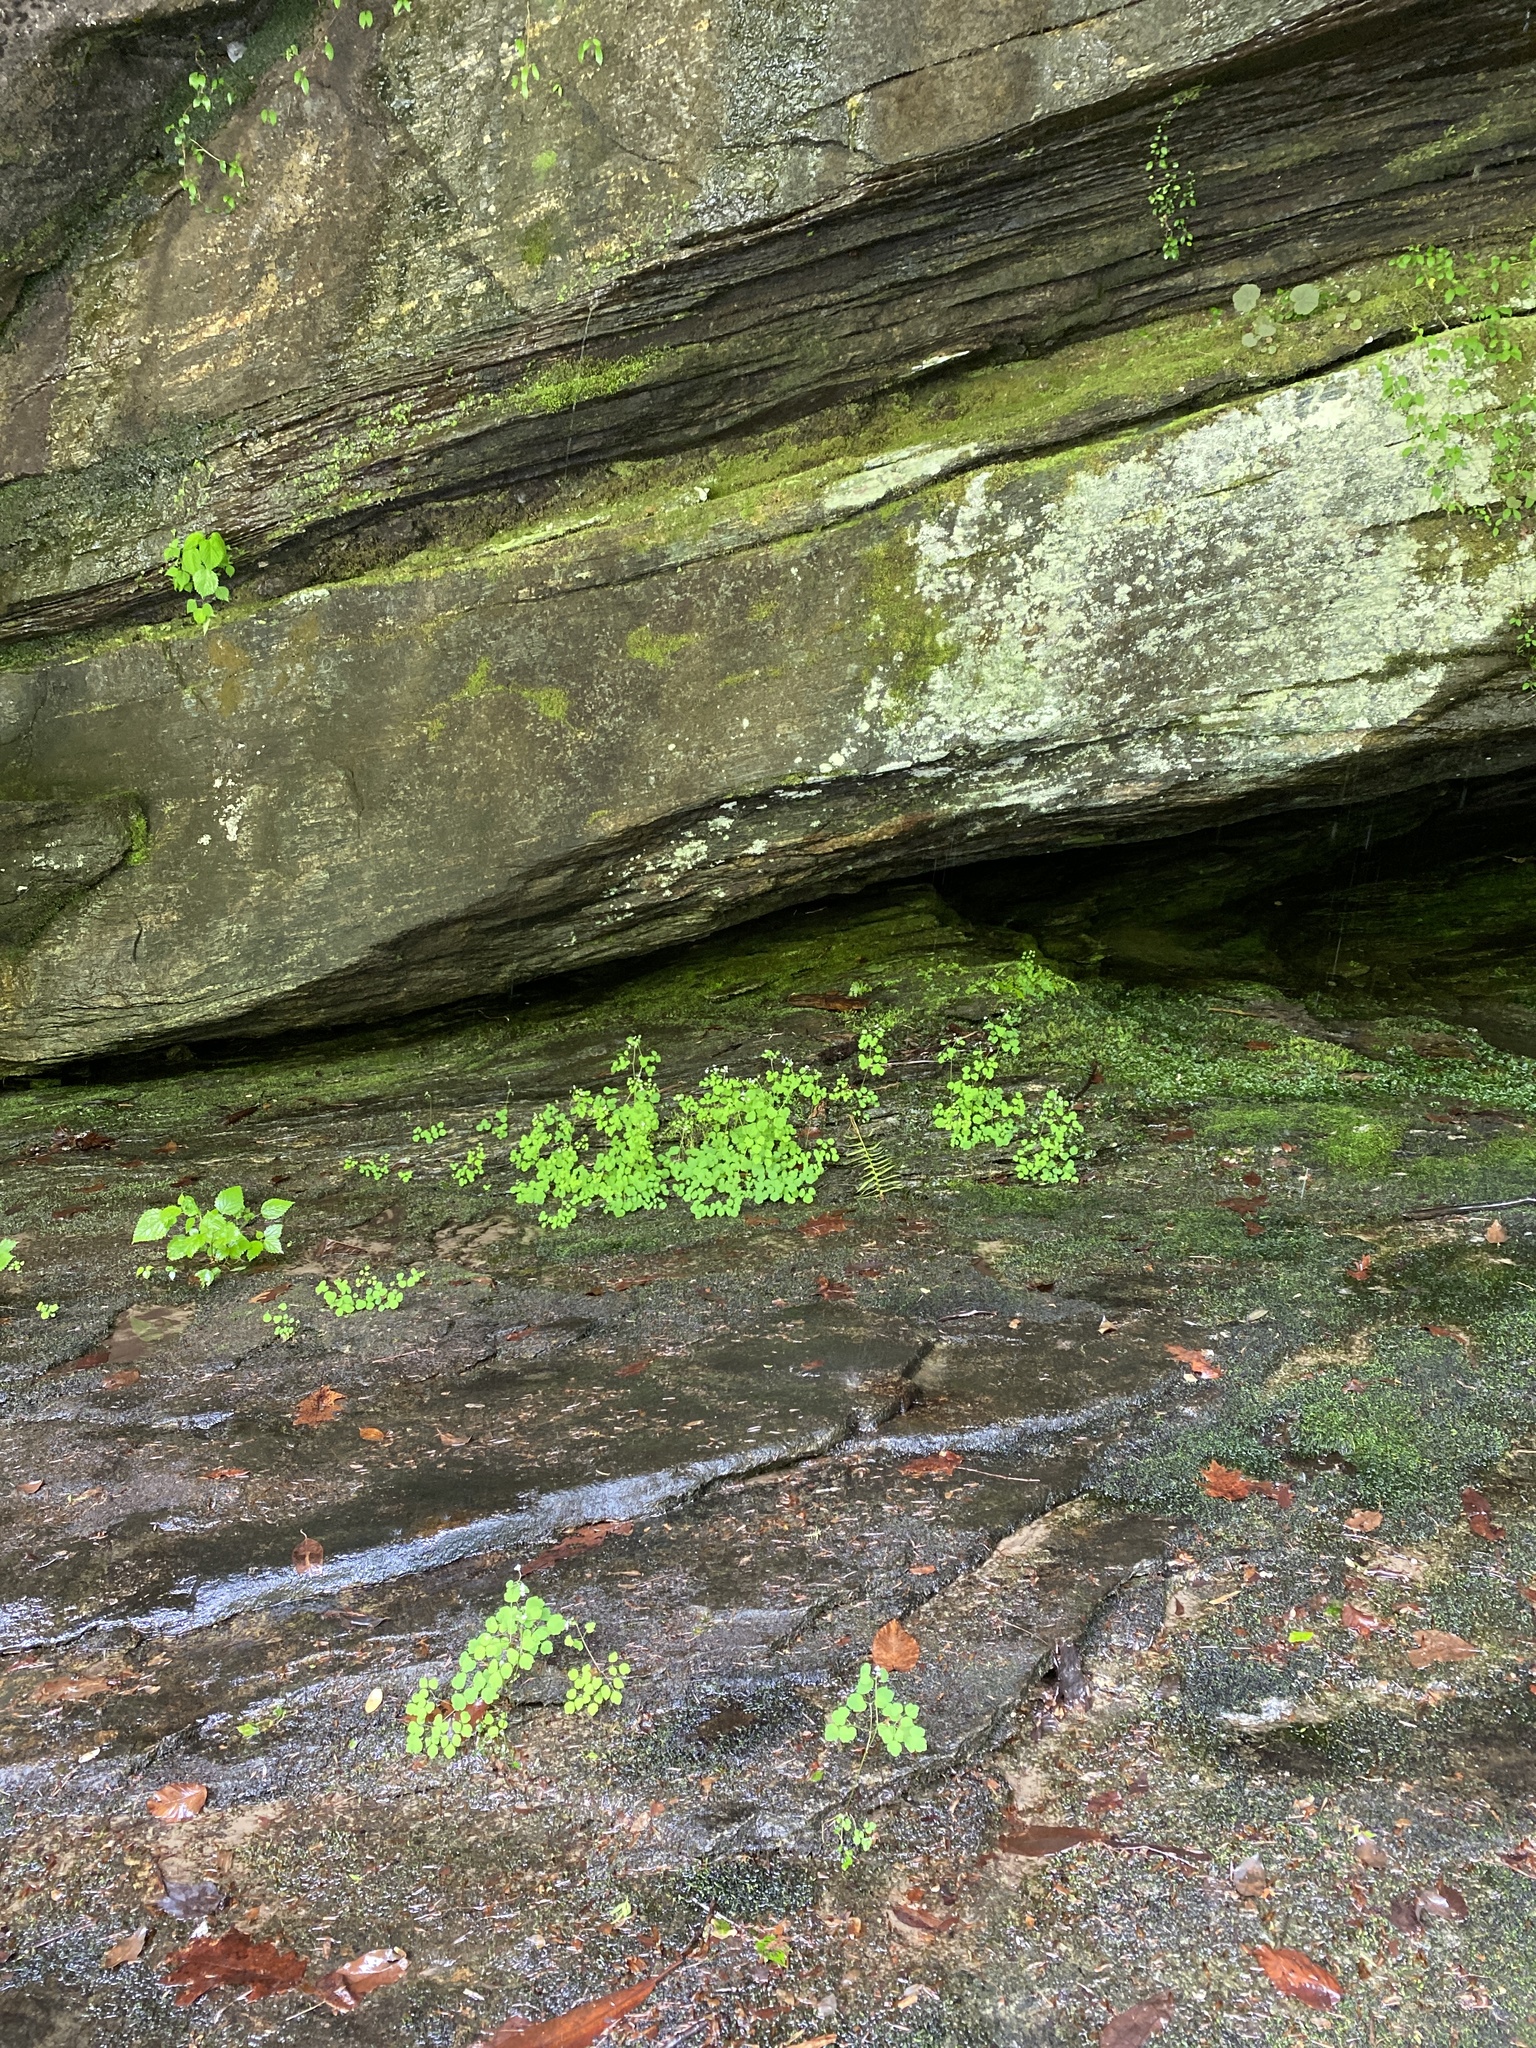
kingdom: Plantae
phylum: Tracheophyta
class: Magnoliopsida
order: Ranunculales
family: Ranunculaceae
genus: Thalictrum
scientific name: Thalictrum clavatum
